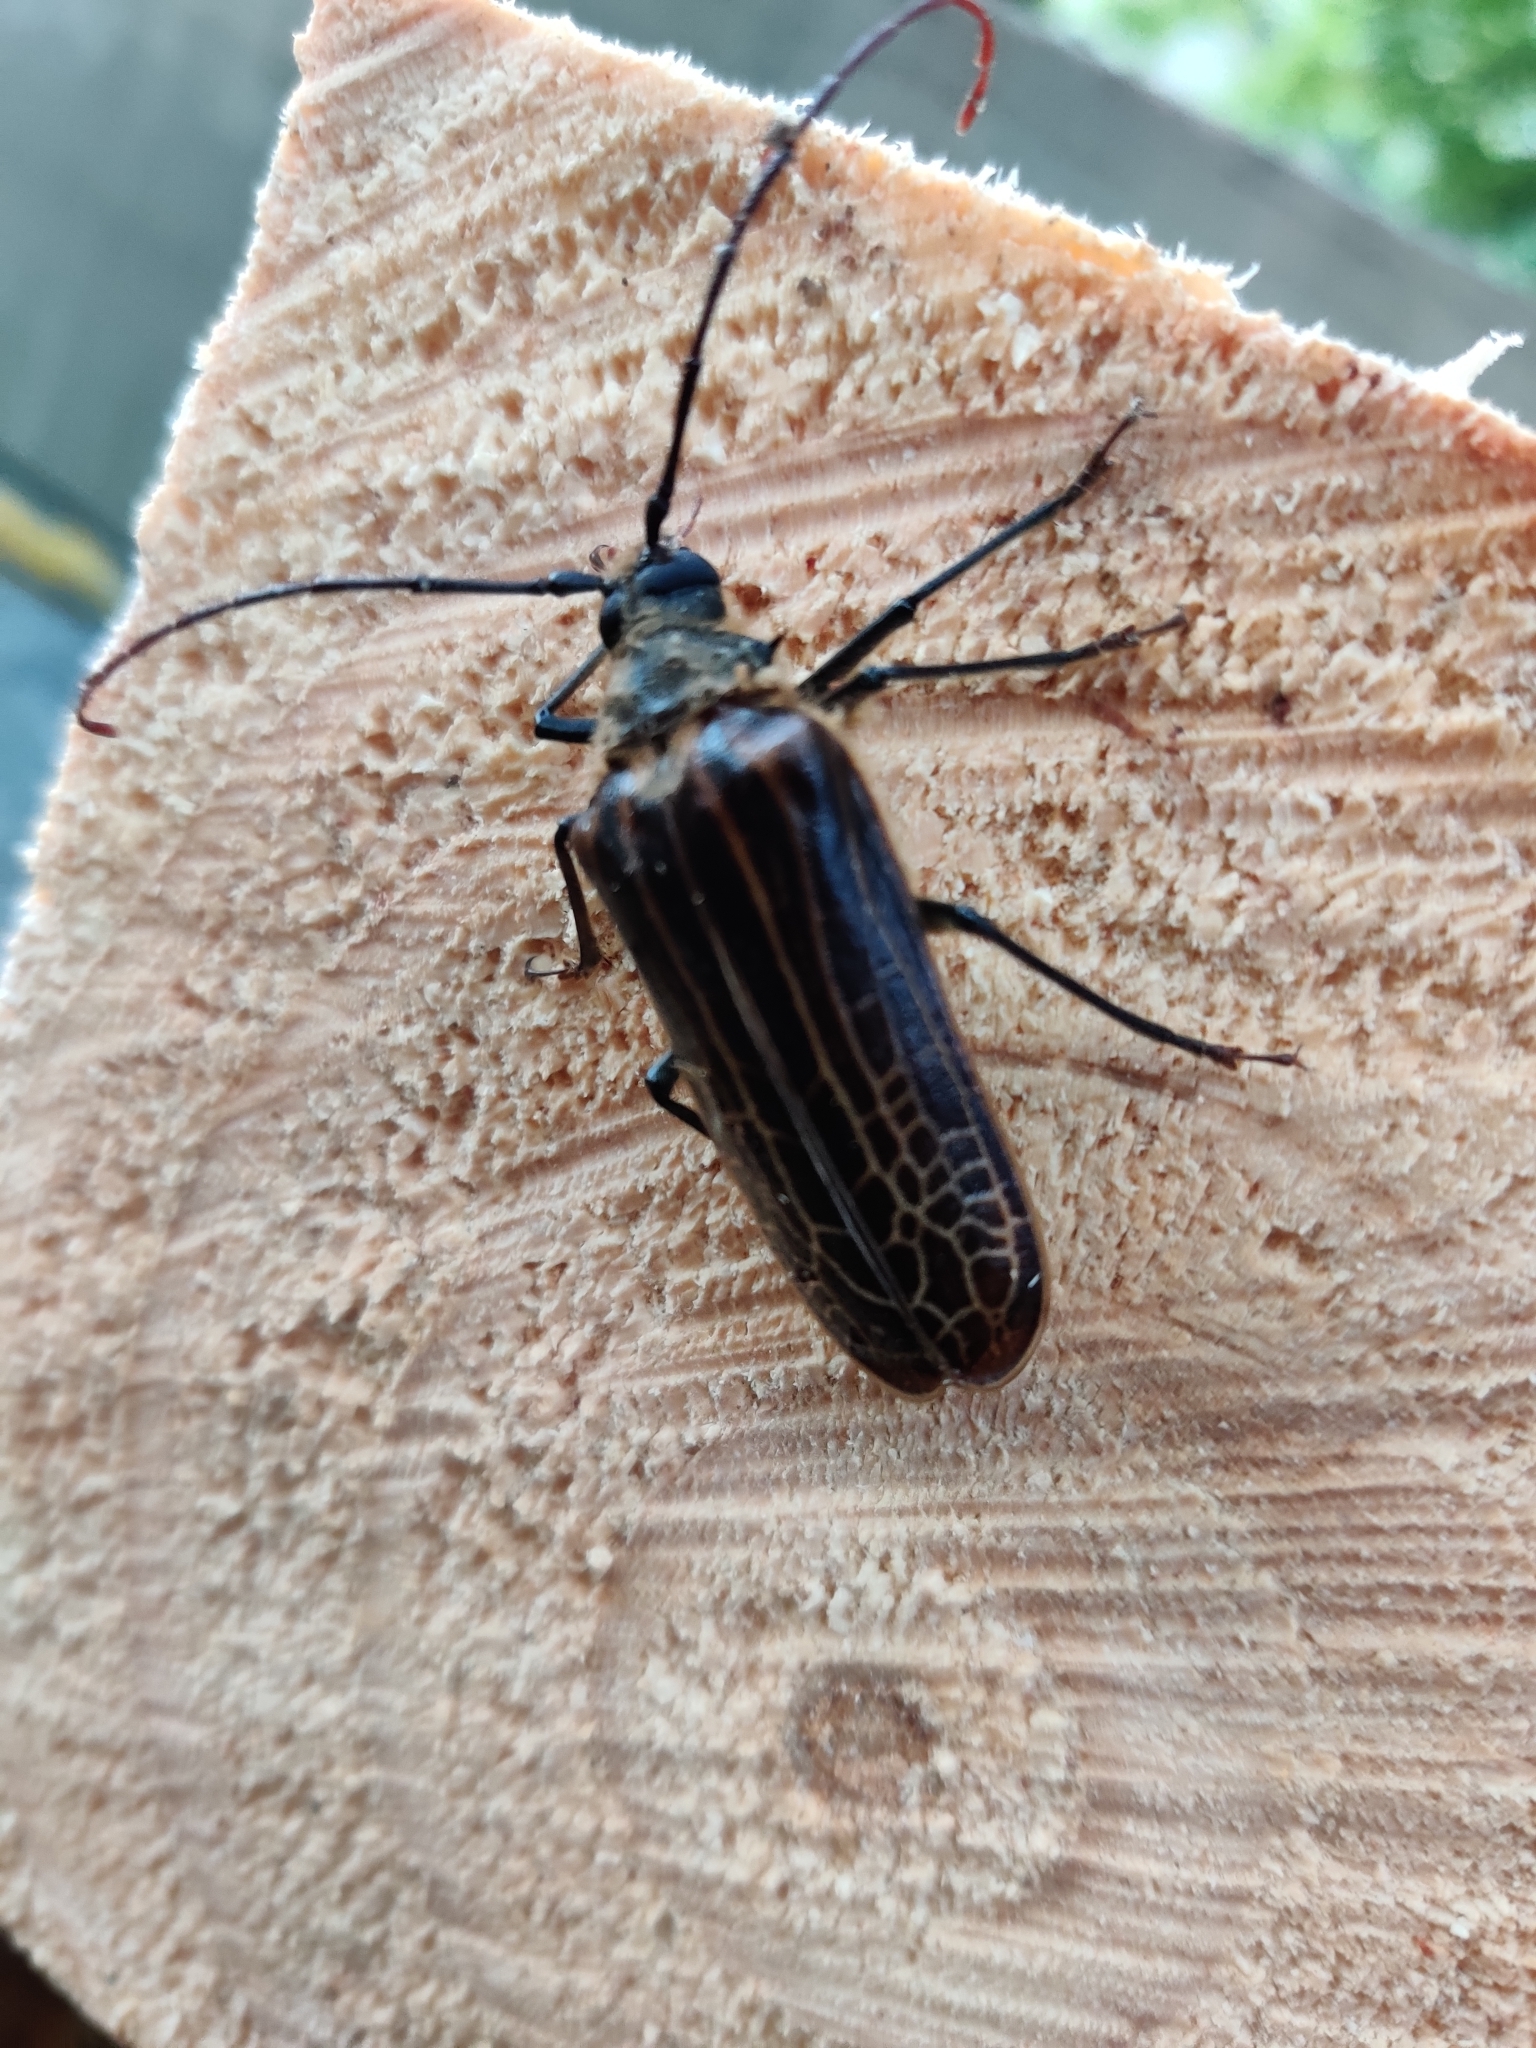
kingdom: Animalia
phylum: Arthropoda
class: Insecta
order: Coleoptera
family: Cerambycidae
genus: Prionoplus
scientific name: Prionoplus reticularis
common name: Huhu beetle
